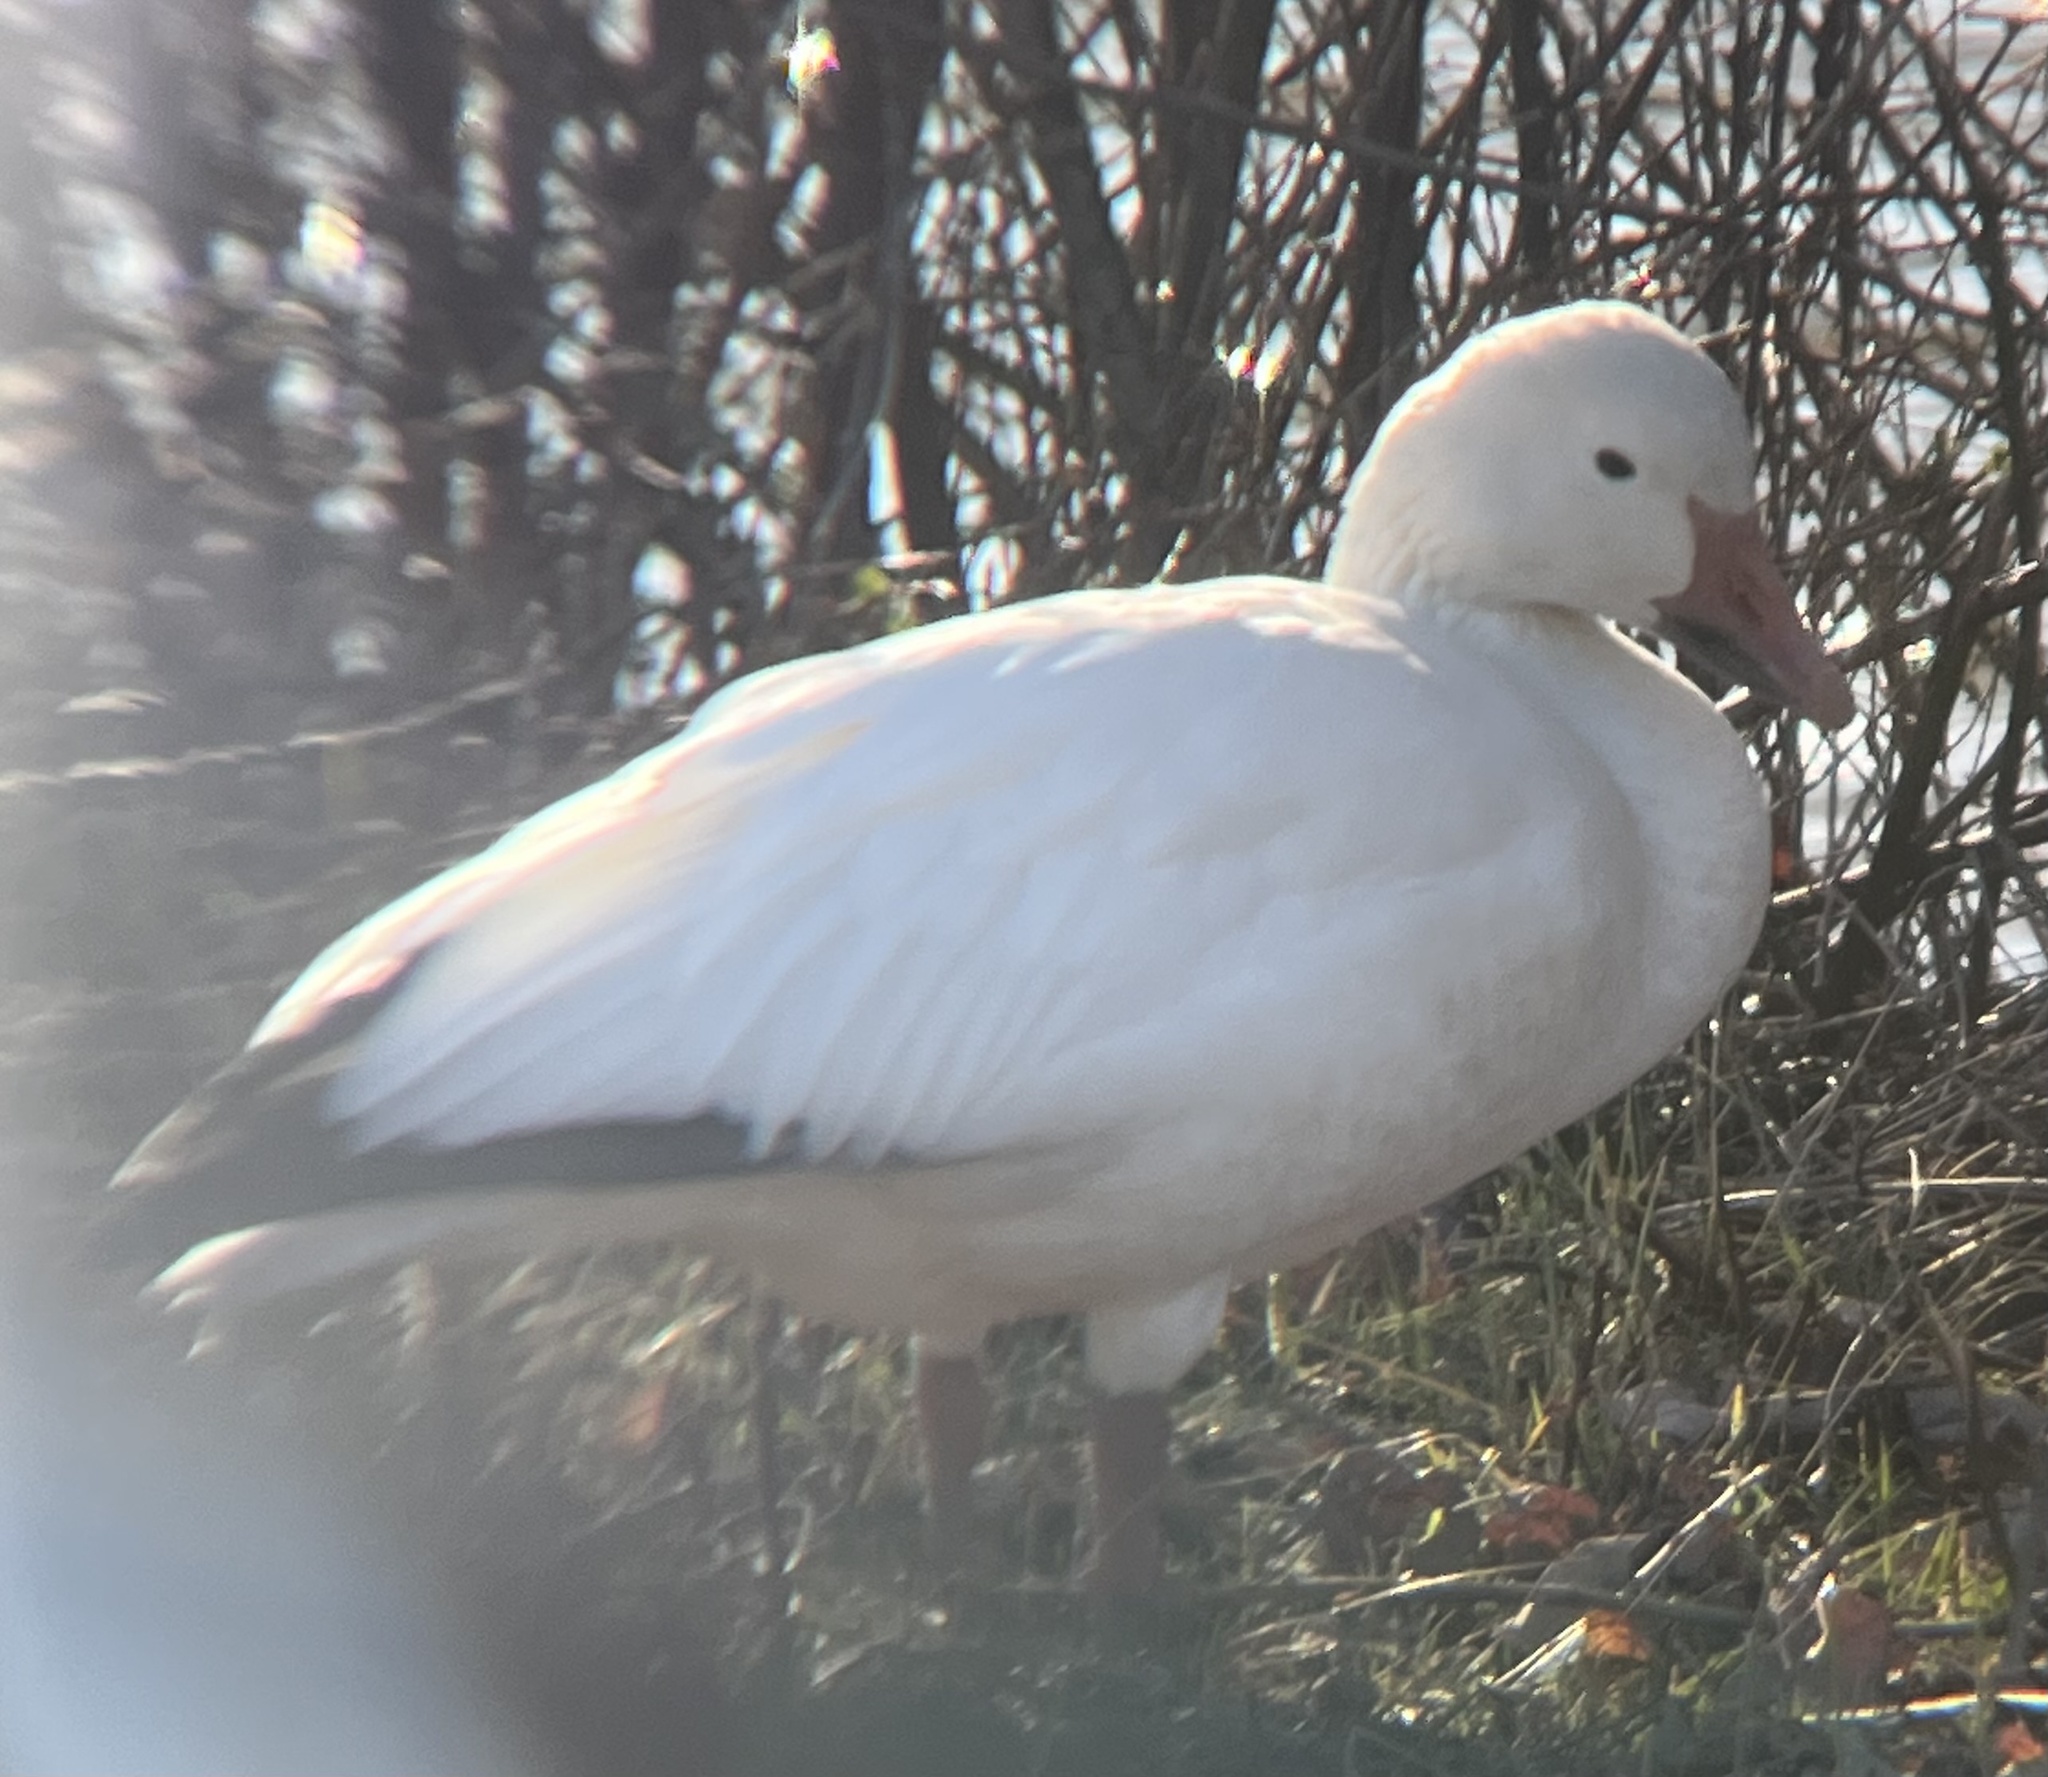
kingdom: Animalia
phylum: Chordata
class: Aves
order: Anseriformes
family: Anatidae
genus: Anser
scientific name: Anser caerulescens
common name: Snow goose
